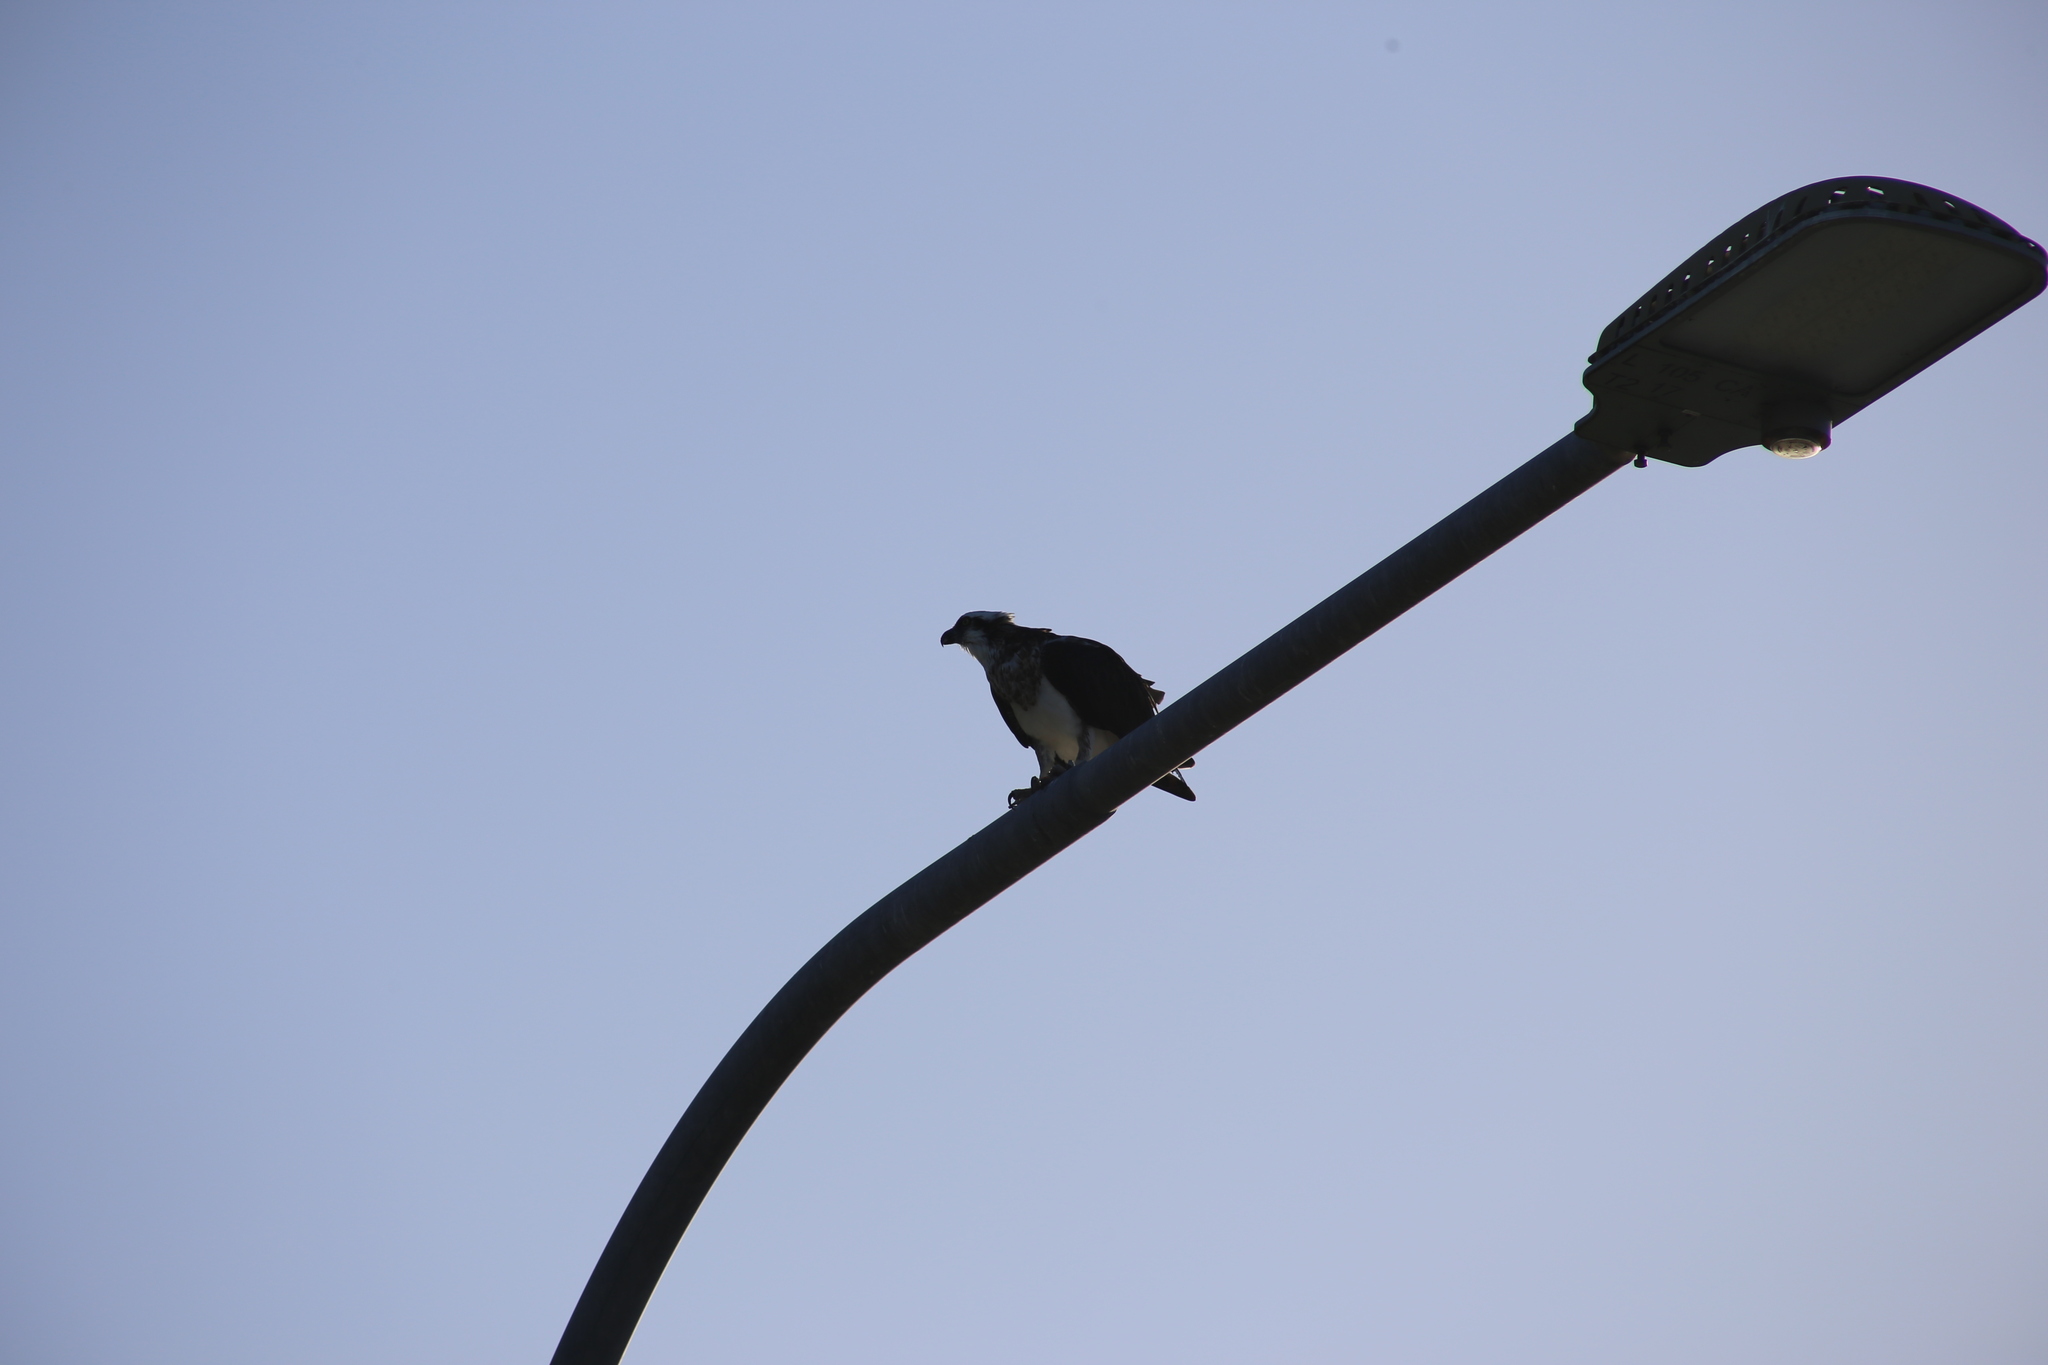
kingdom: Animalia
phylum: Chordata
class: Aves
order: Accipitriformes
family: Pandionidae
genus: Pandion
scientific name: Pandion cristatus
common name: Eastern osprey
